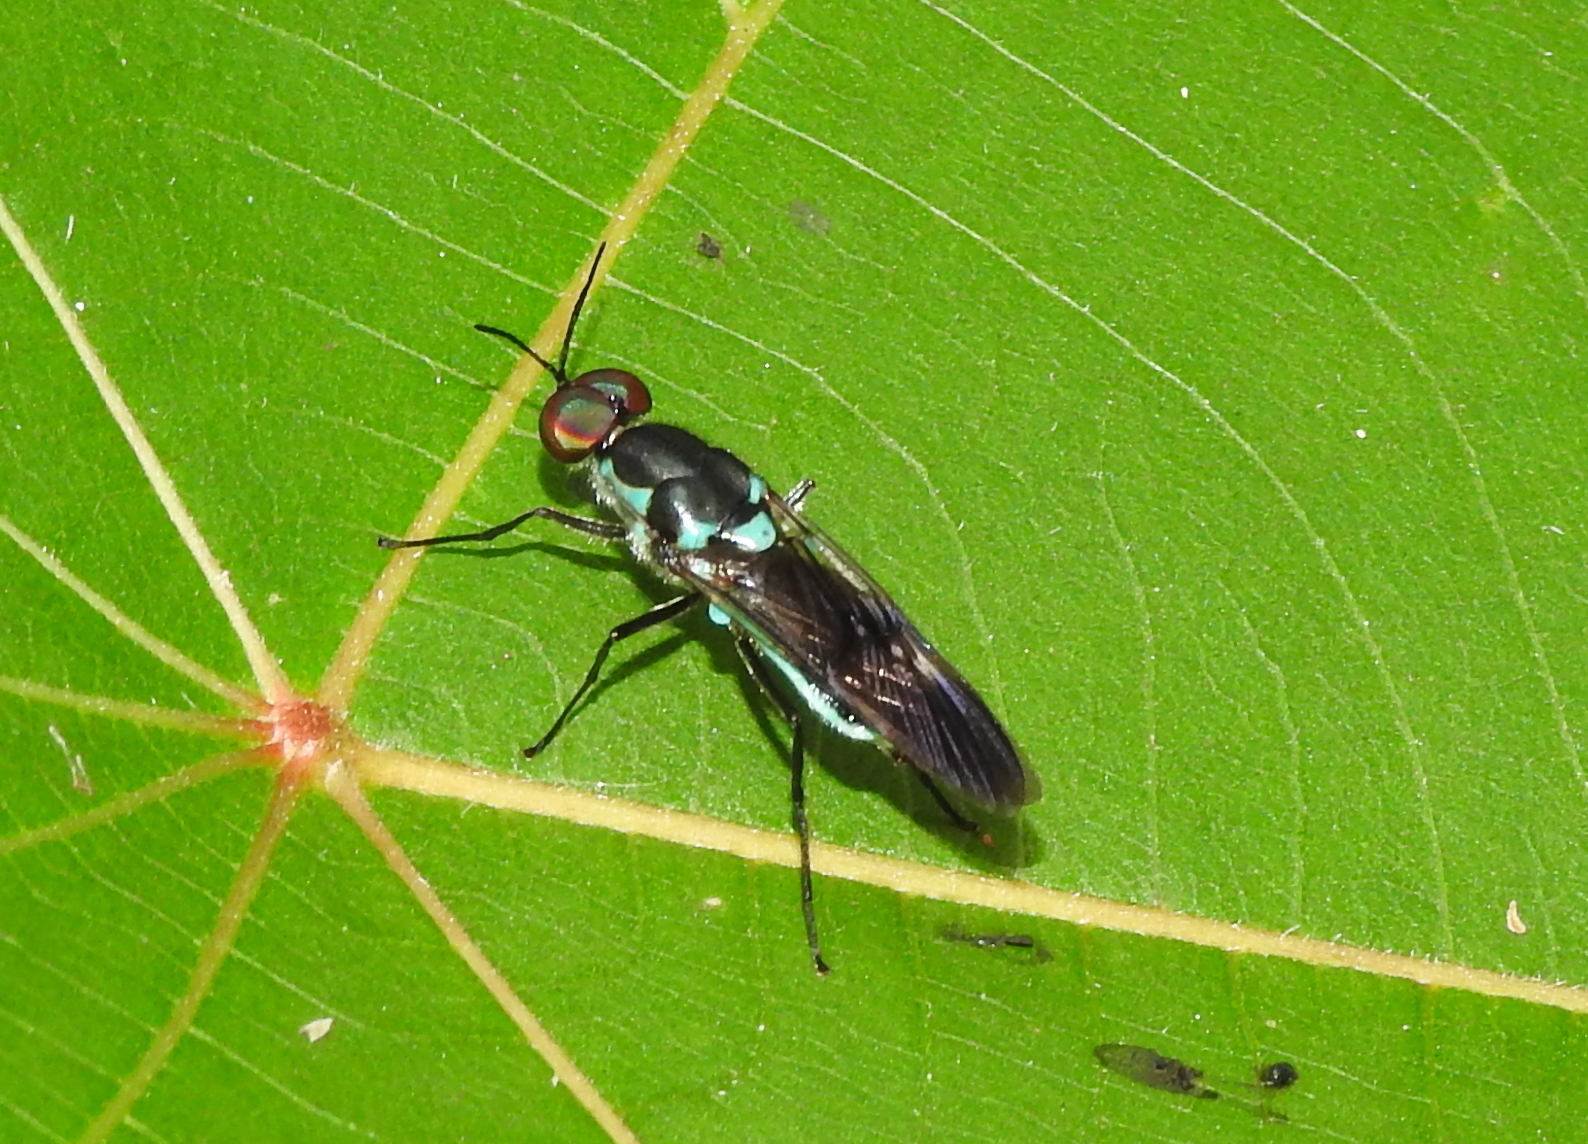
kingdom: Animalia
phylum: Arthropoda
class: Insecta
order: Diptera
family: Stratiomyidae
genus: Eudmeta
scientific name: Eudmeta marginata
